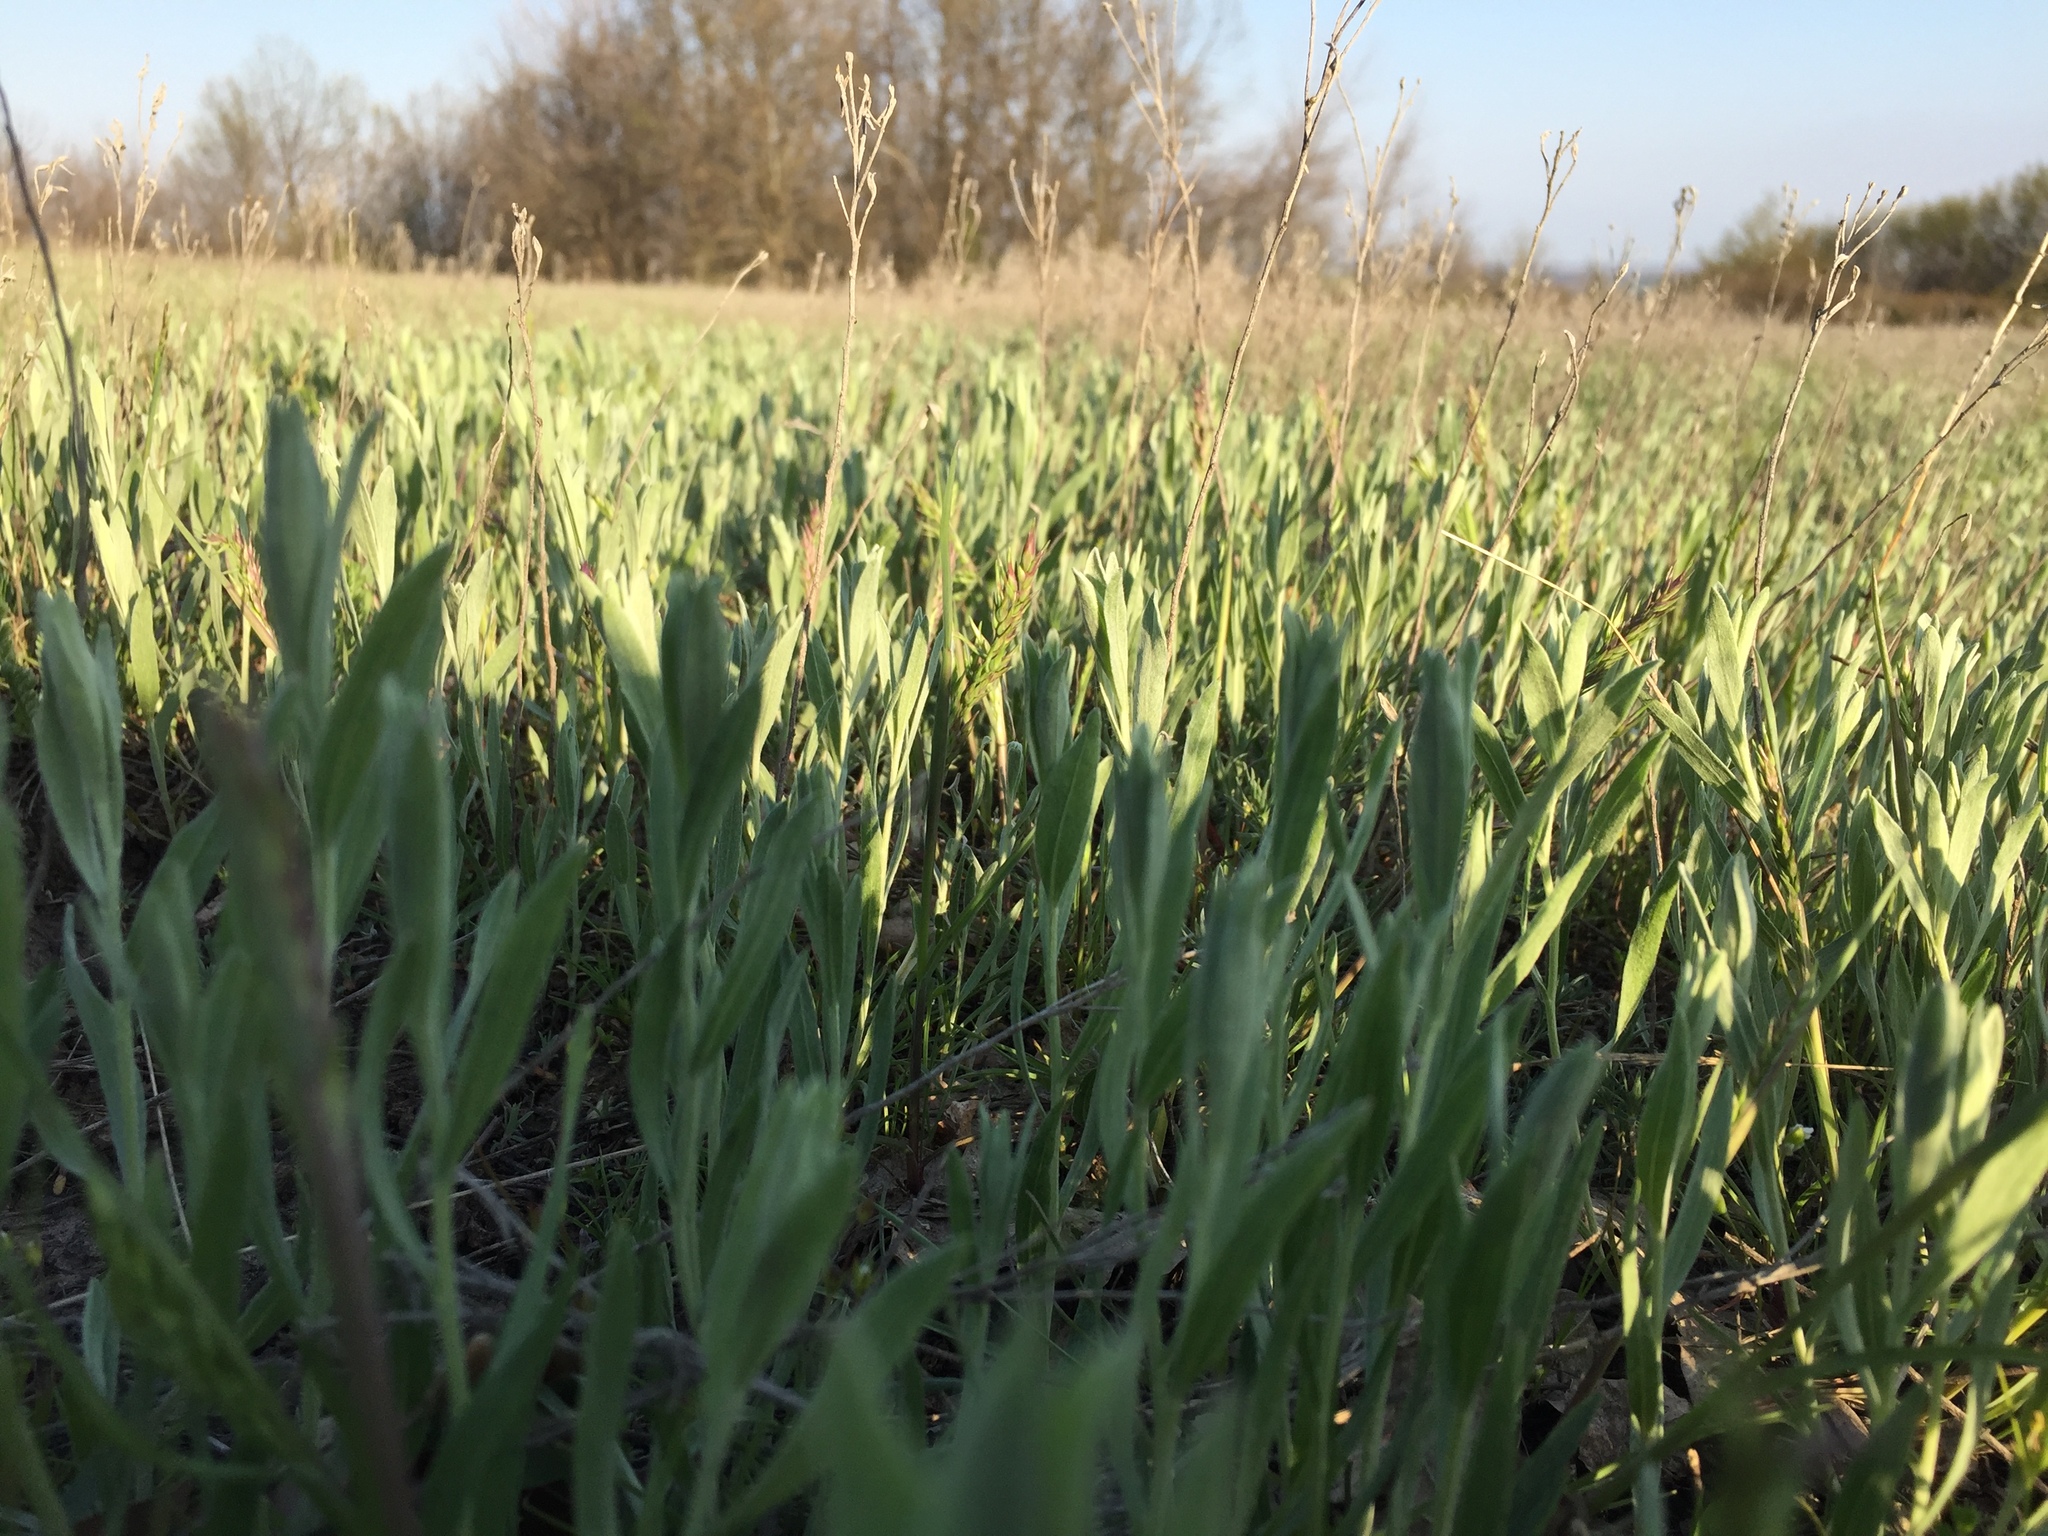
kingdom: Plantae
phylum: Tracheophyta
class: Magnoliopsida
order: Asterales
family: Asteraceae
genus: Helichrysum
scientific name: Helichrysum arenarium
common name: Strawflower
